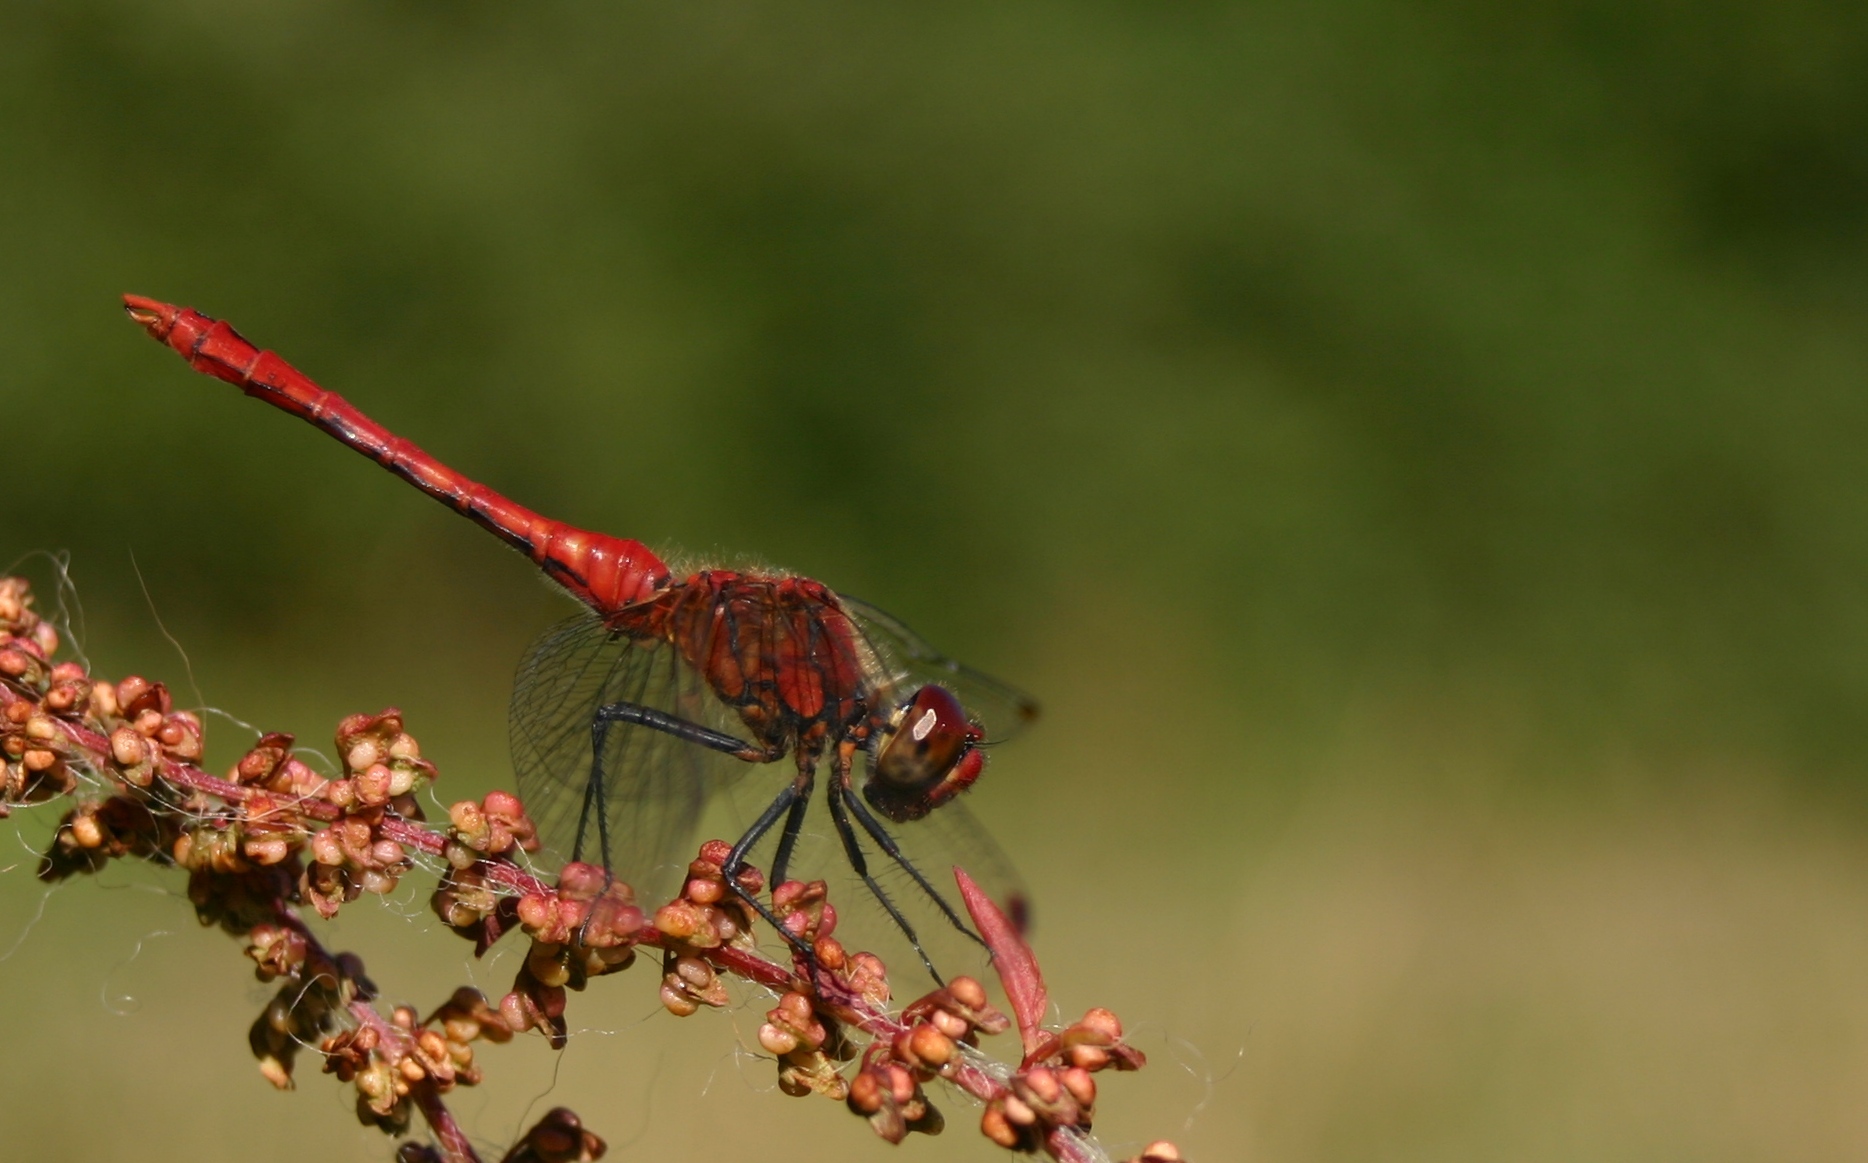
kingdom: Animalia
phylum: Arthropoda
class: Insecta
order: Odonata
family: Libellulidae
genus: Sympetrum
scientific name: Sympetrum sanguineum
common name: Ruddy darter
